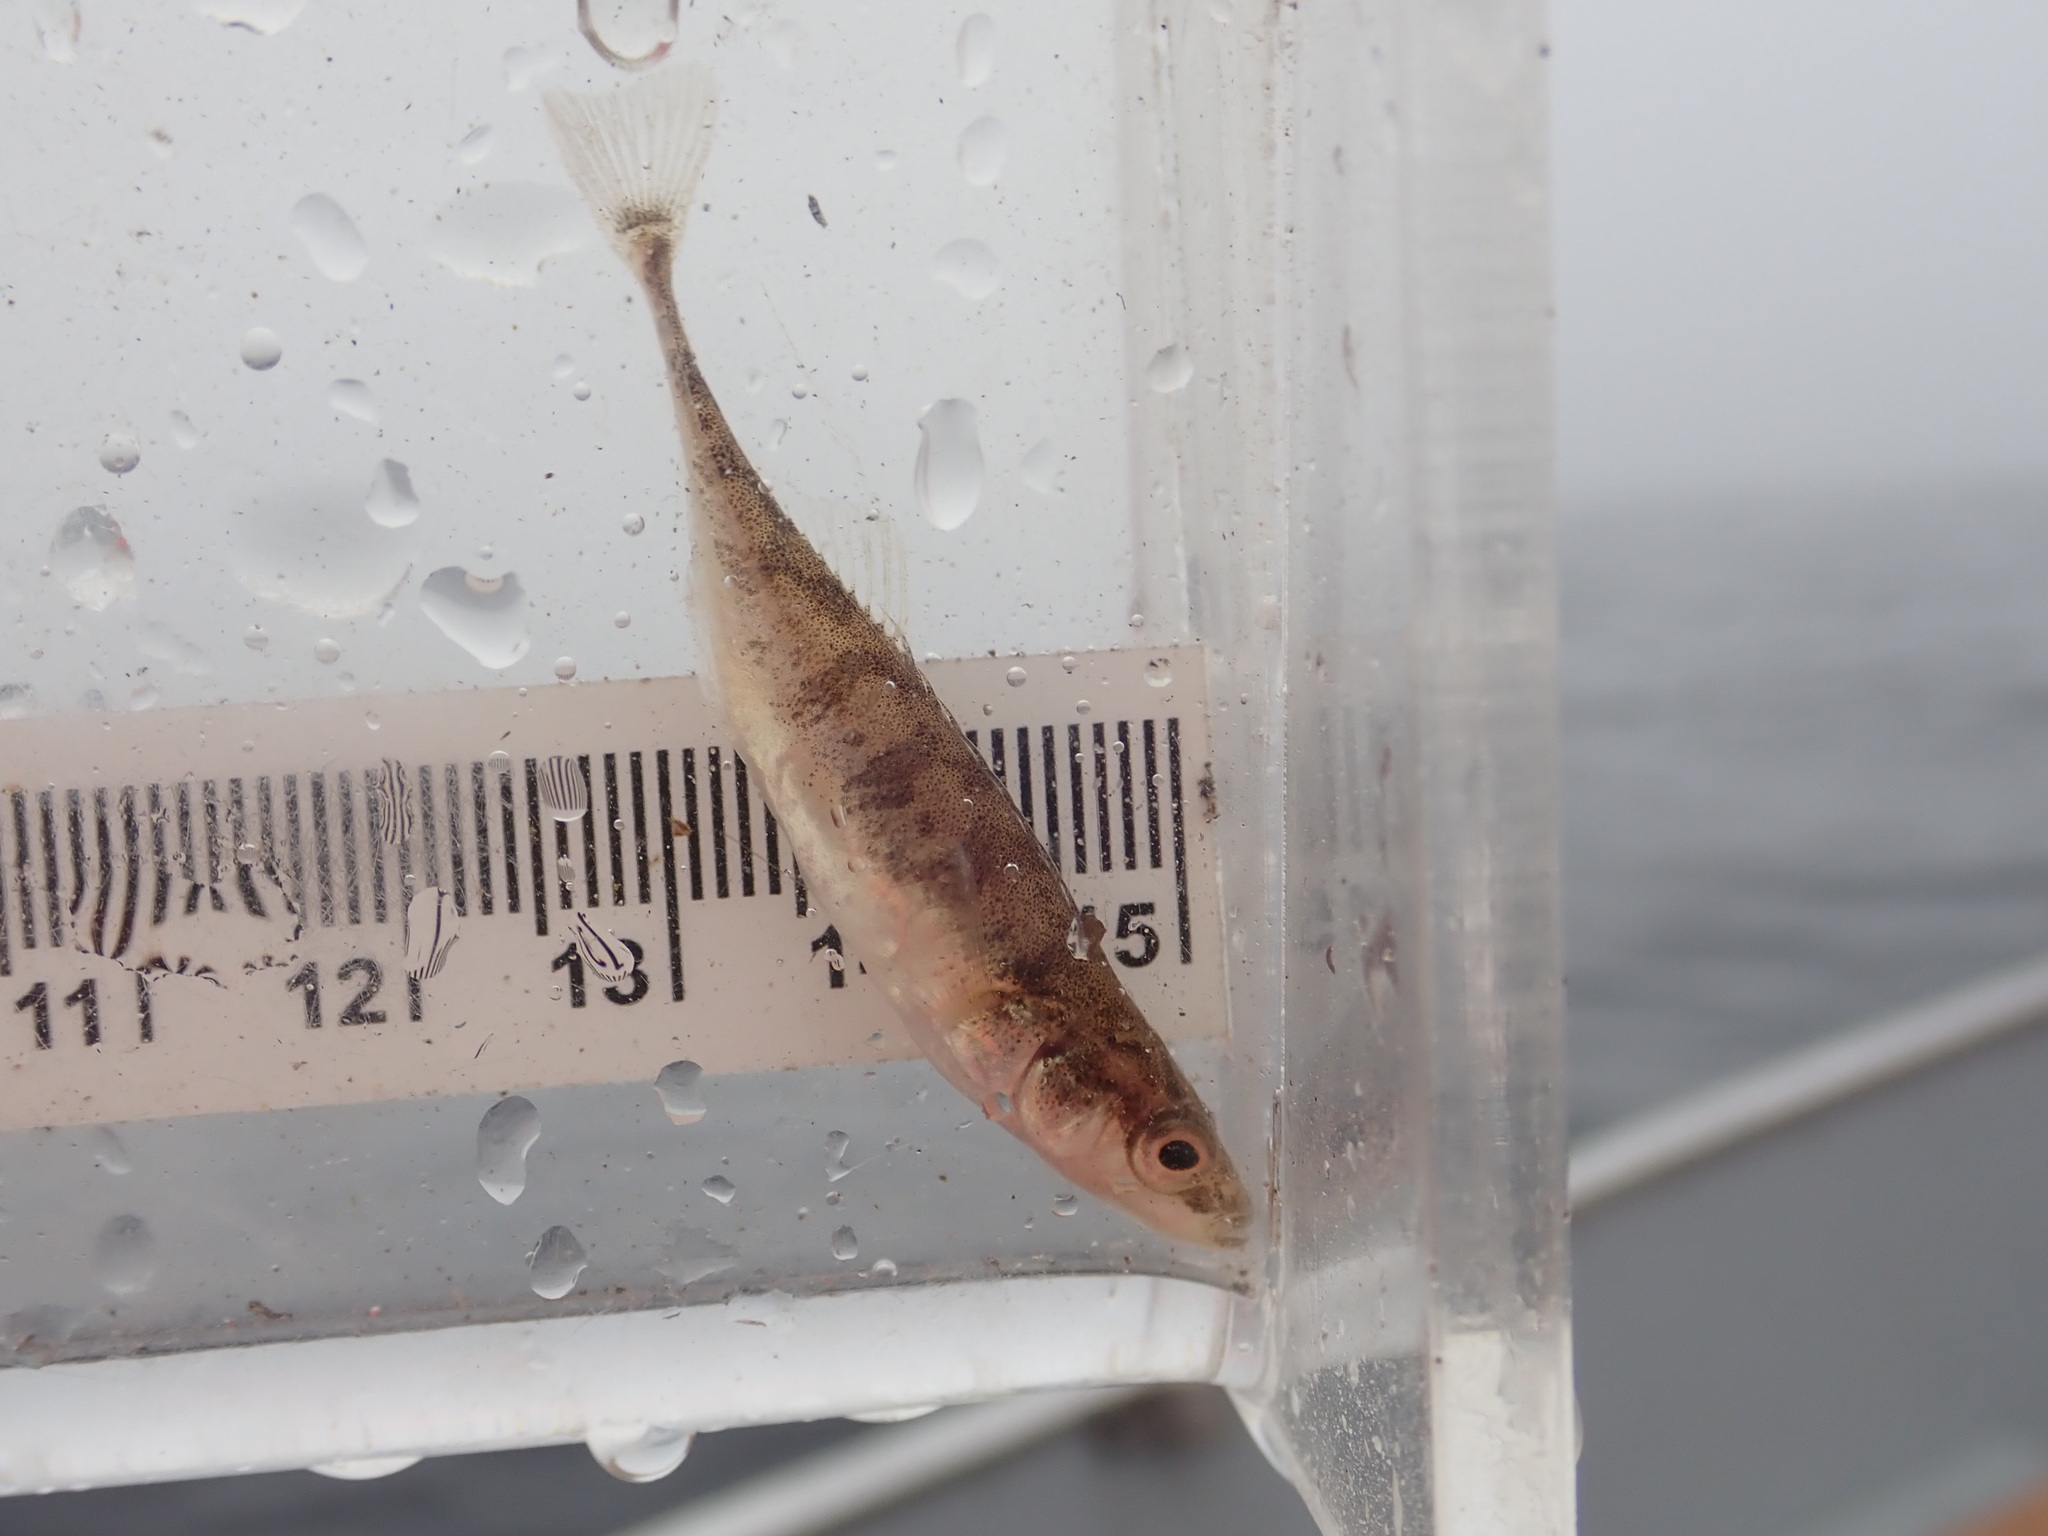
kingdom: Animalia
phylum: Chordata
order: Gasterosteiformes
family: Gasterosteidae
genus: Pungitius
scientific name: Pungitius pungitius
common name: Nine-spined stickleback
